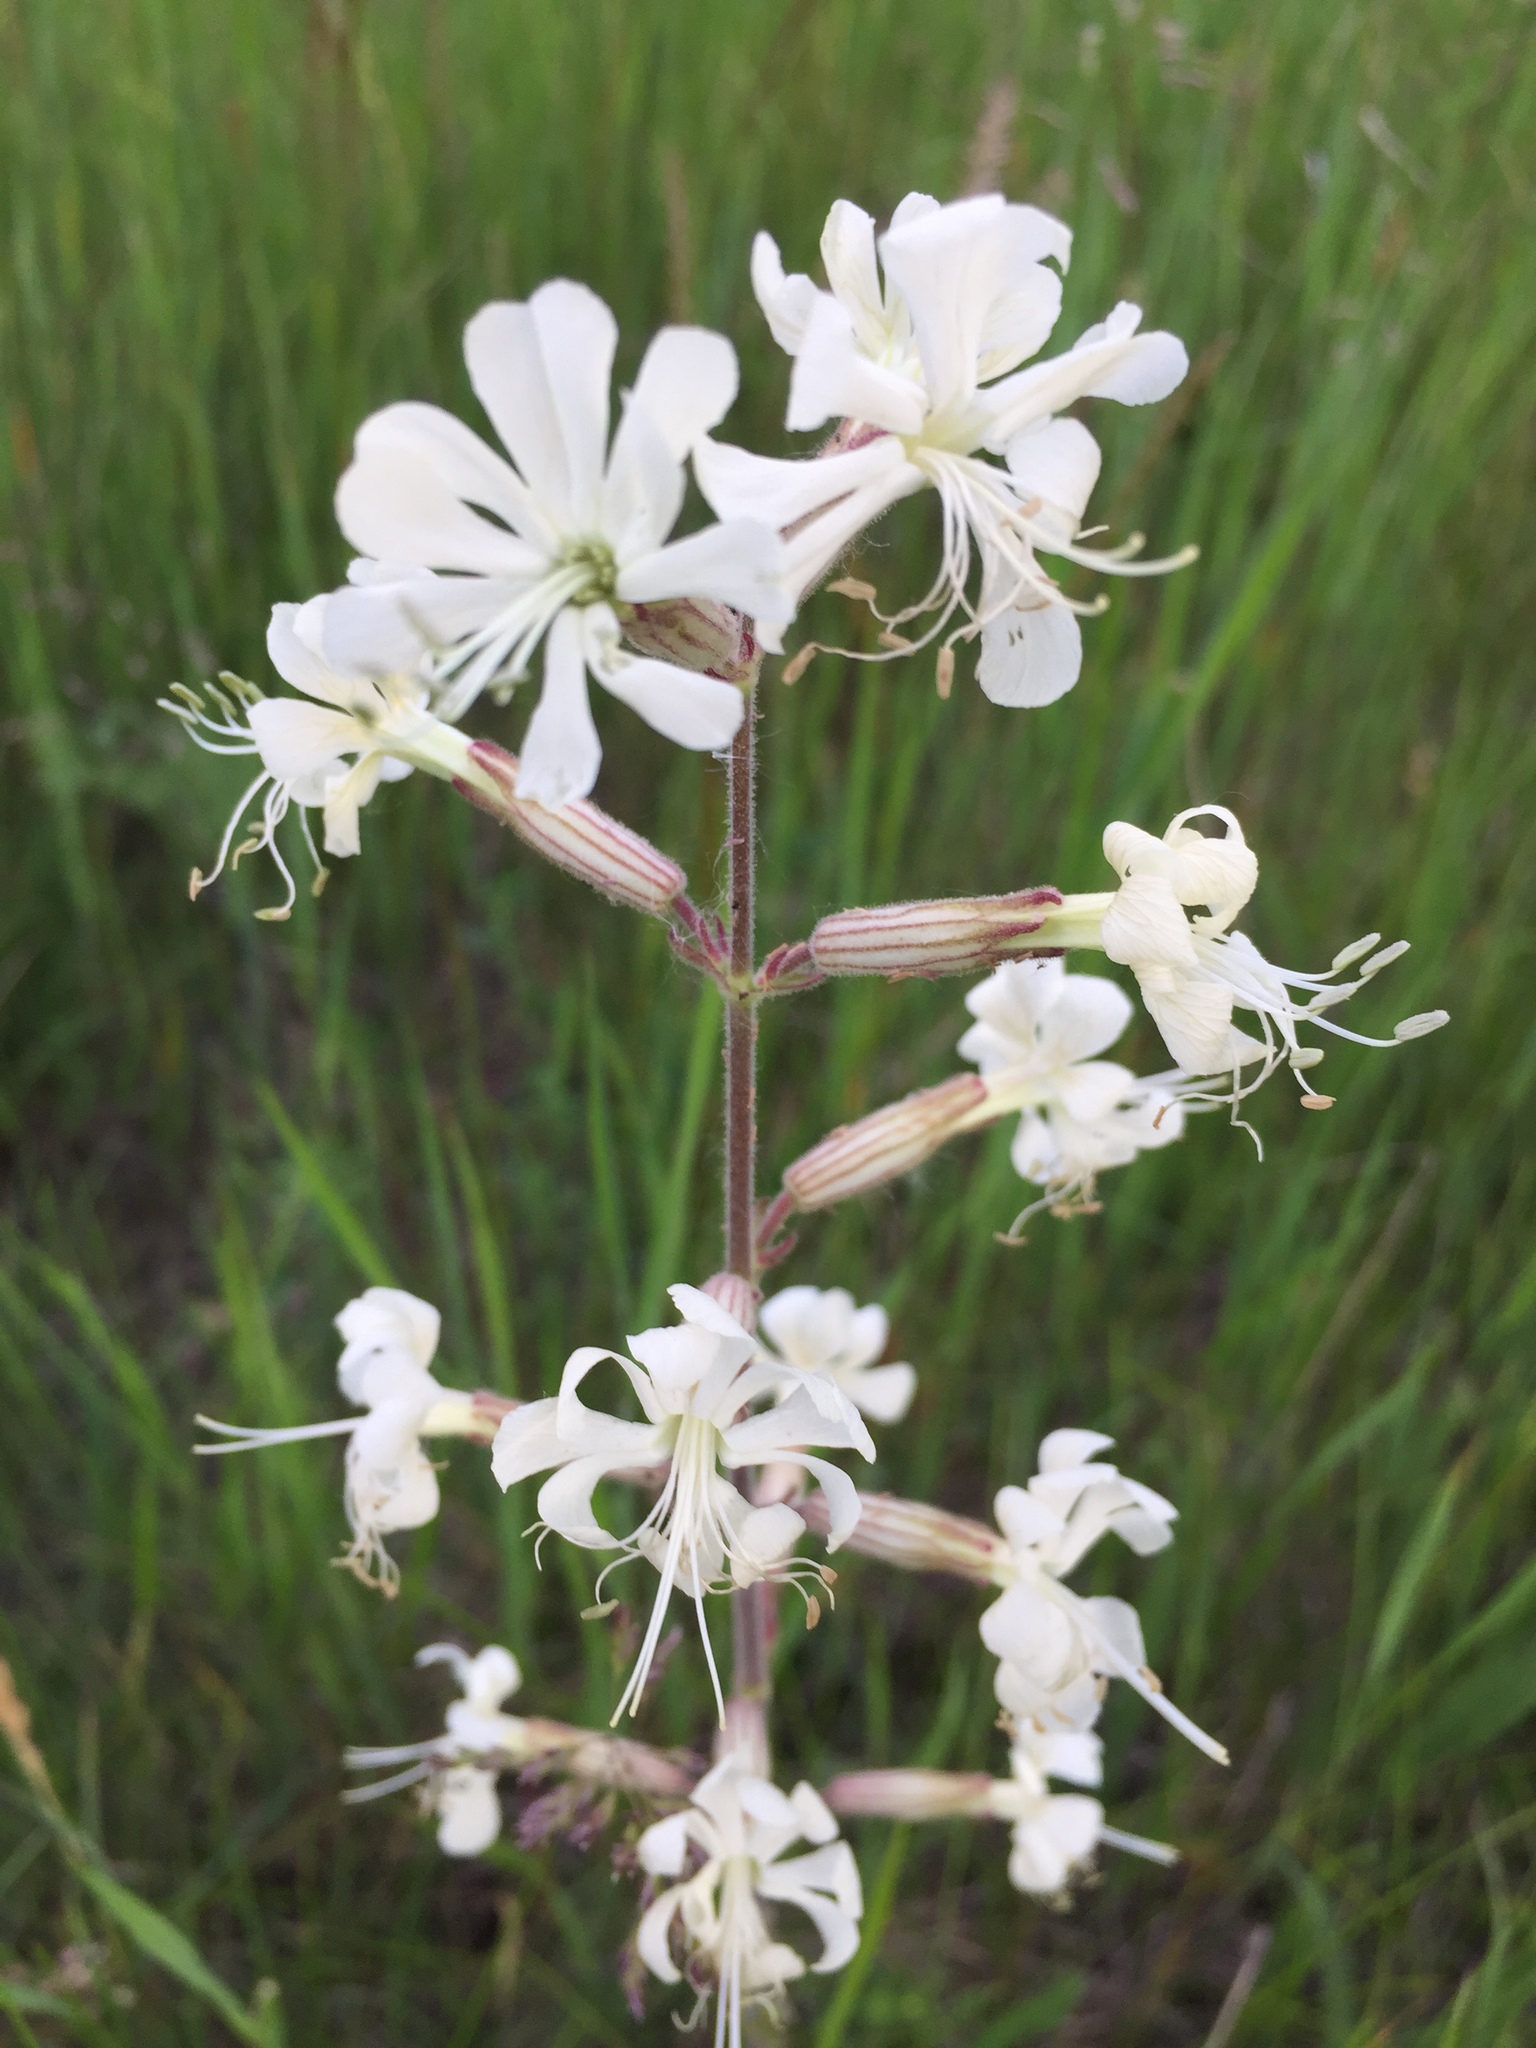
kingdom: Plantae
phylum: Tracheophyta
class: Magnoliopsida
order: Caryophyllales
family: Caryophyllaceae
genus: Silene
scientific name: Silene viscosa
